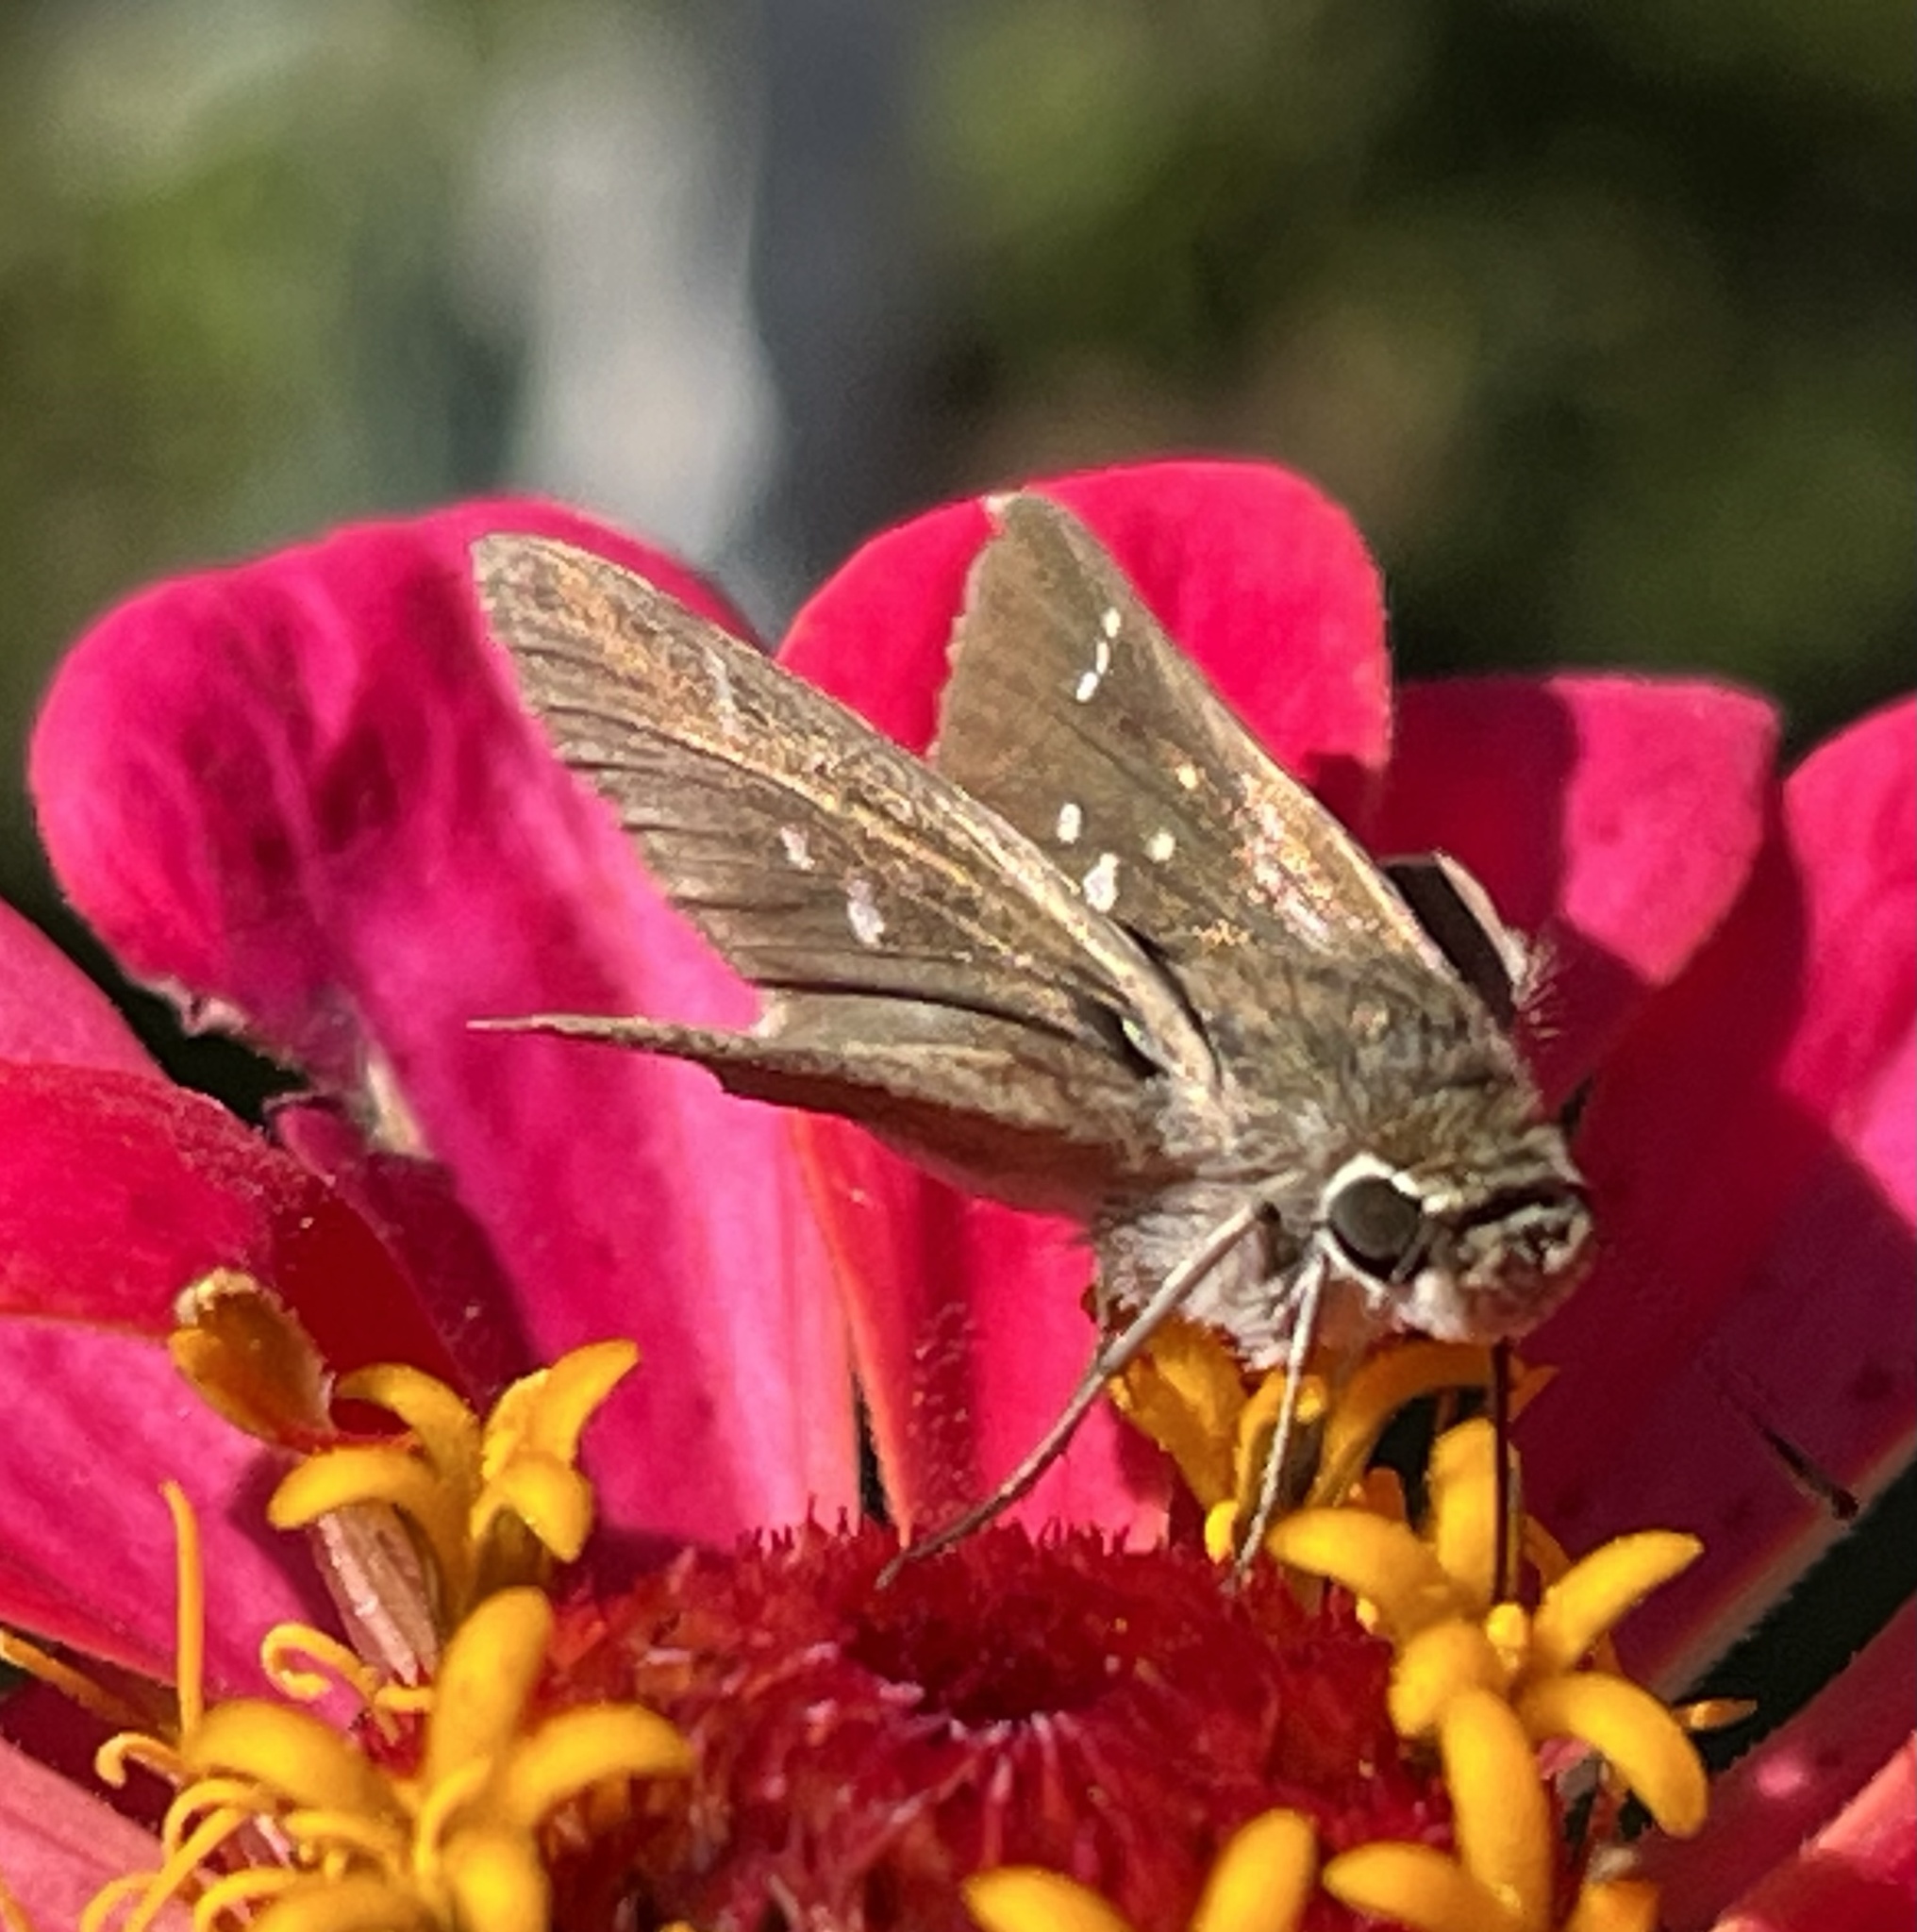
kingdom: Animalia
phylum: Arthropoda
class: Insecta
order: Lepidoptera
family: Hesperiidae
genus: Lerodea
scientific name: Lerodea eufala
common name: Eufala skipper
